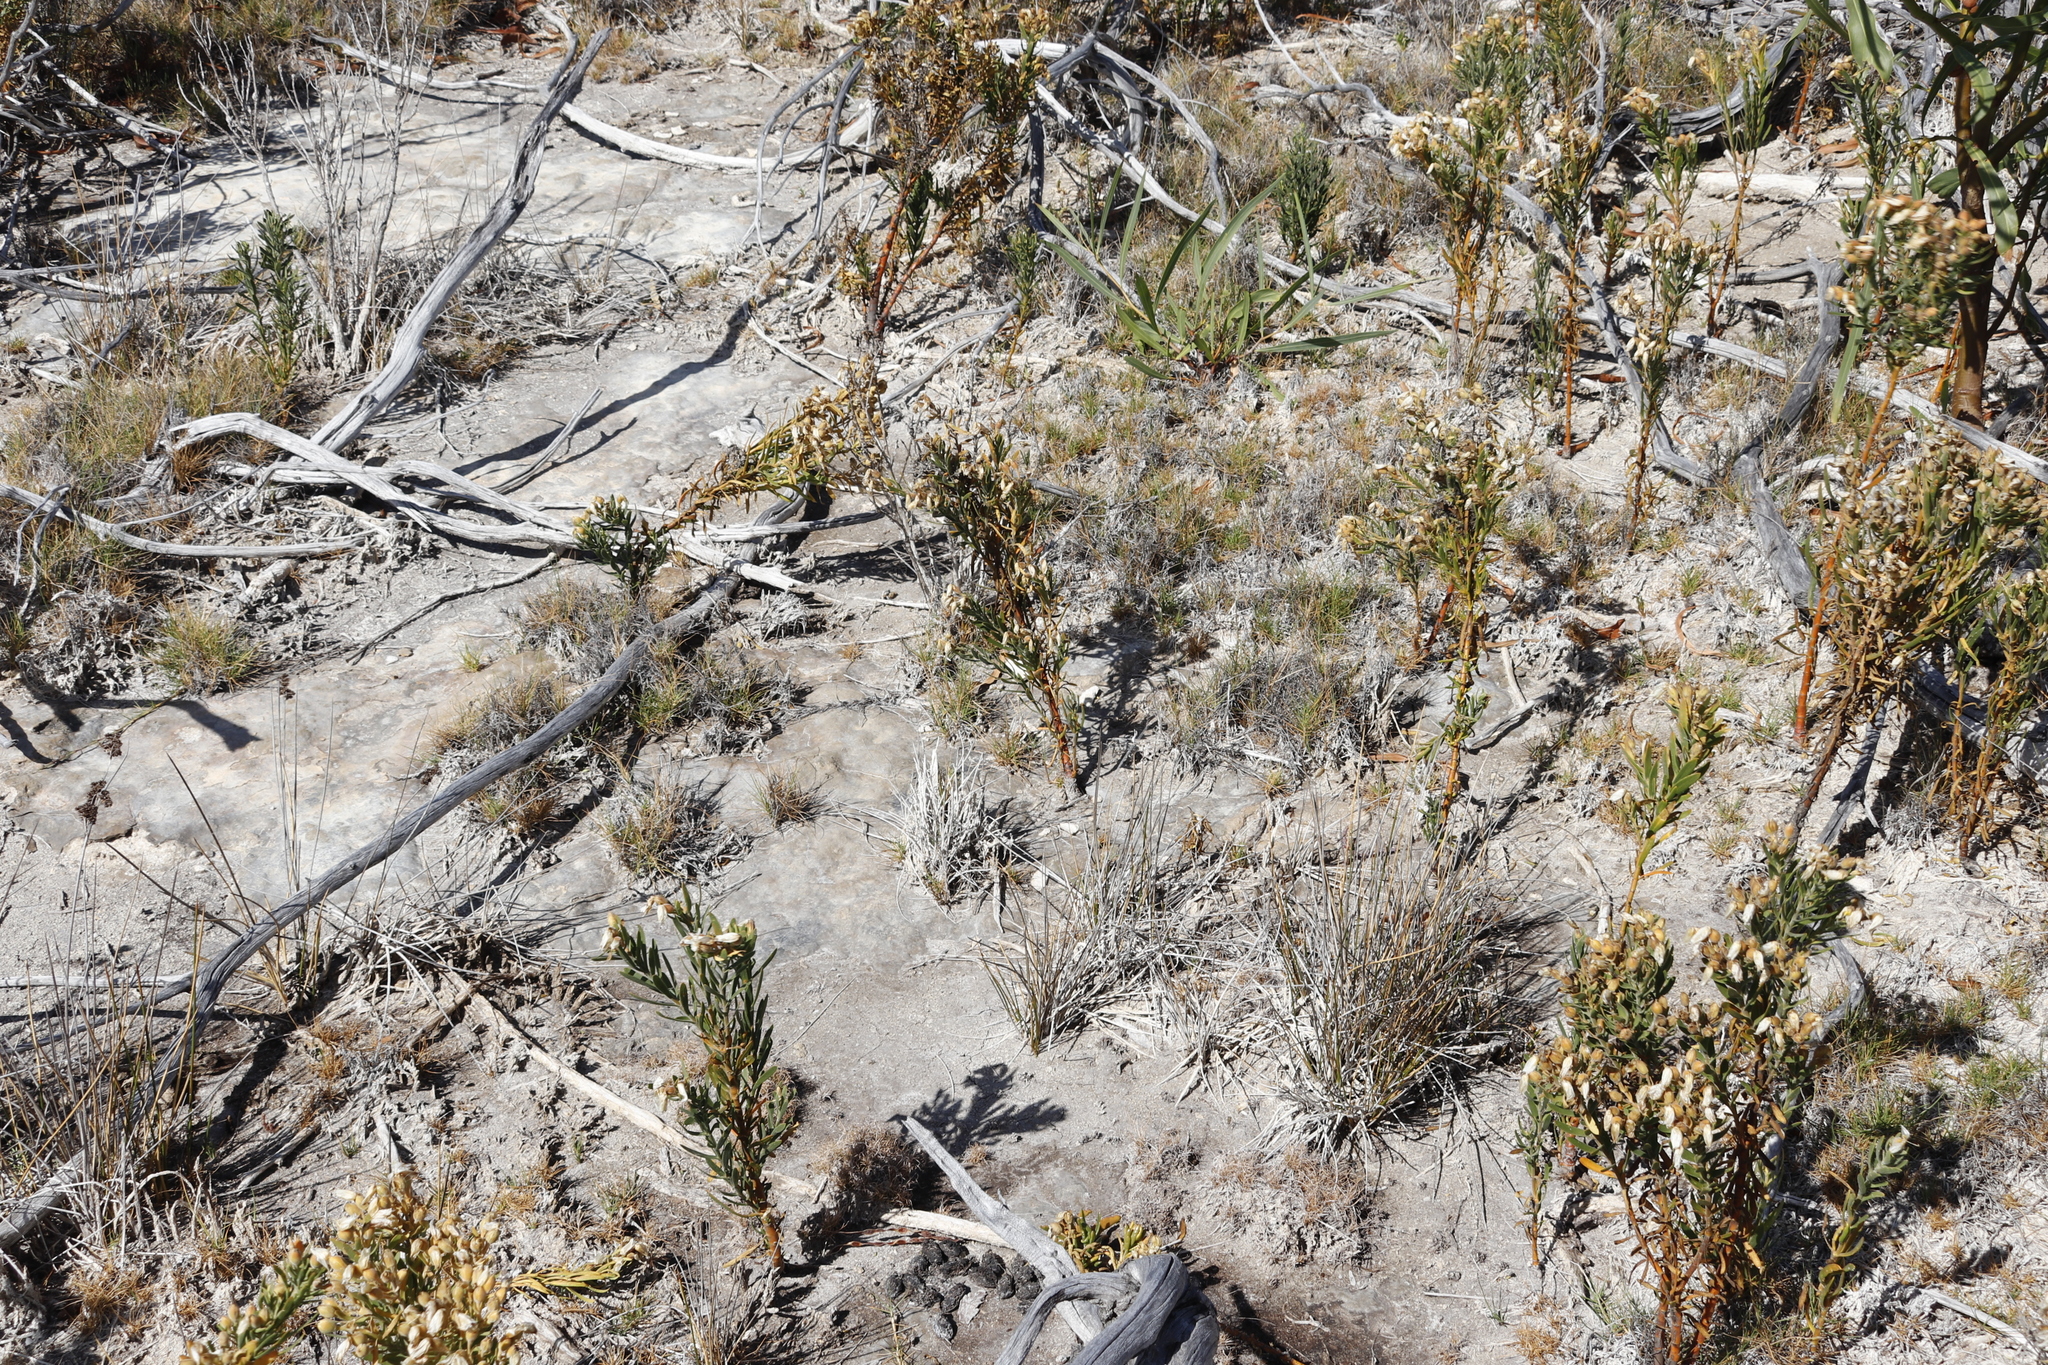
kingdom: Plantae
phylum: Tracheophyta
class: Magnoliopsida
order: Gentianales
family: Gentianaceae
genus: Orphium
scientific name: Orphium frutescens
